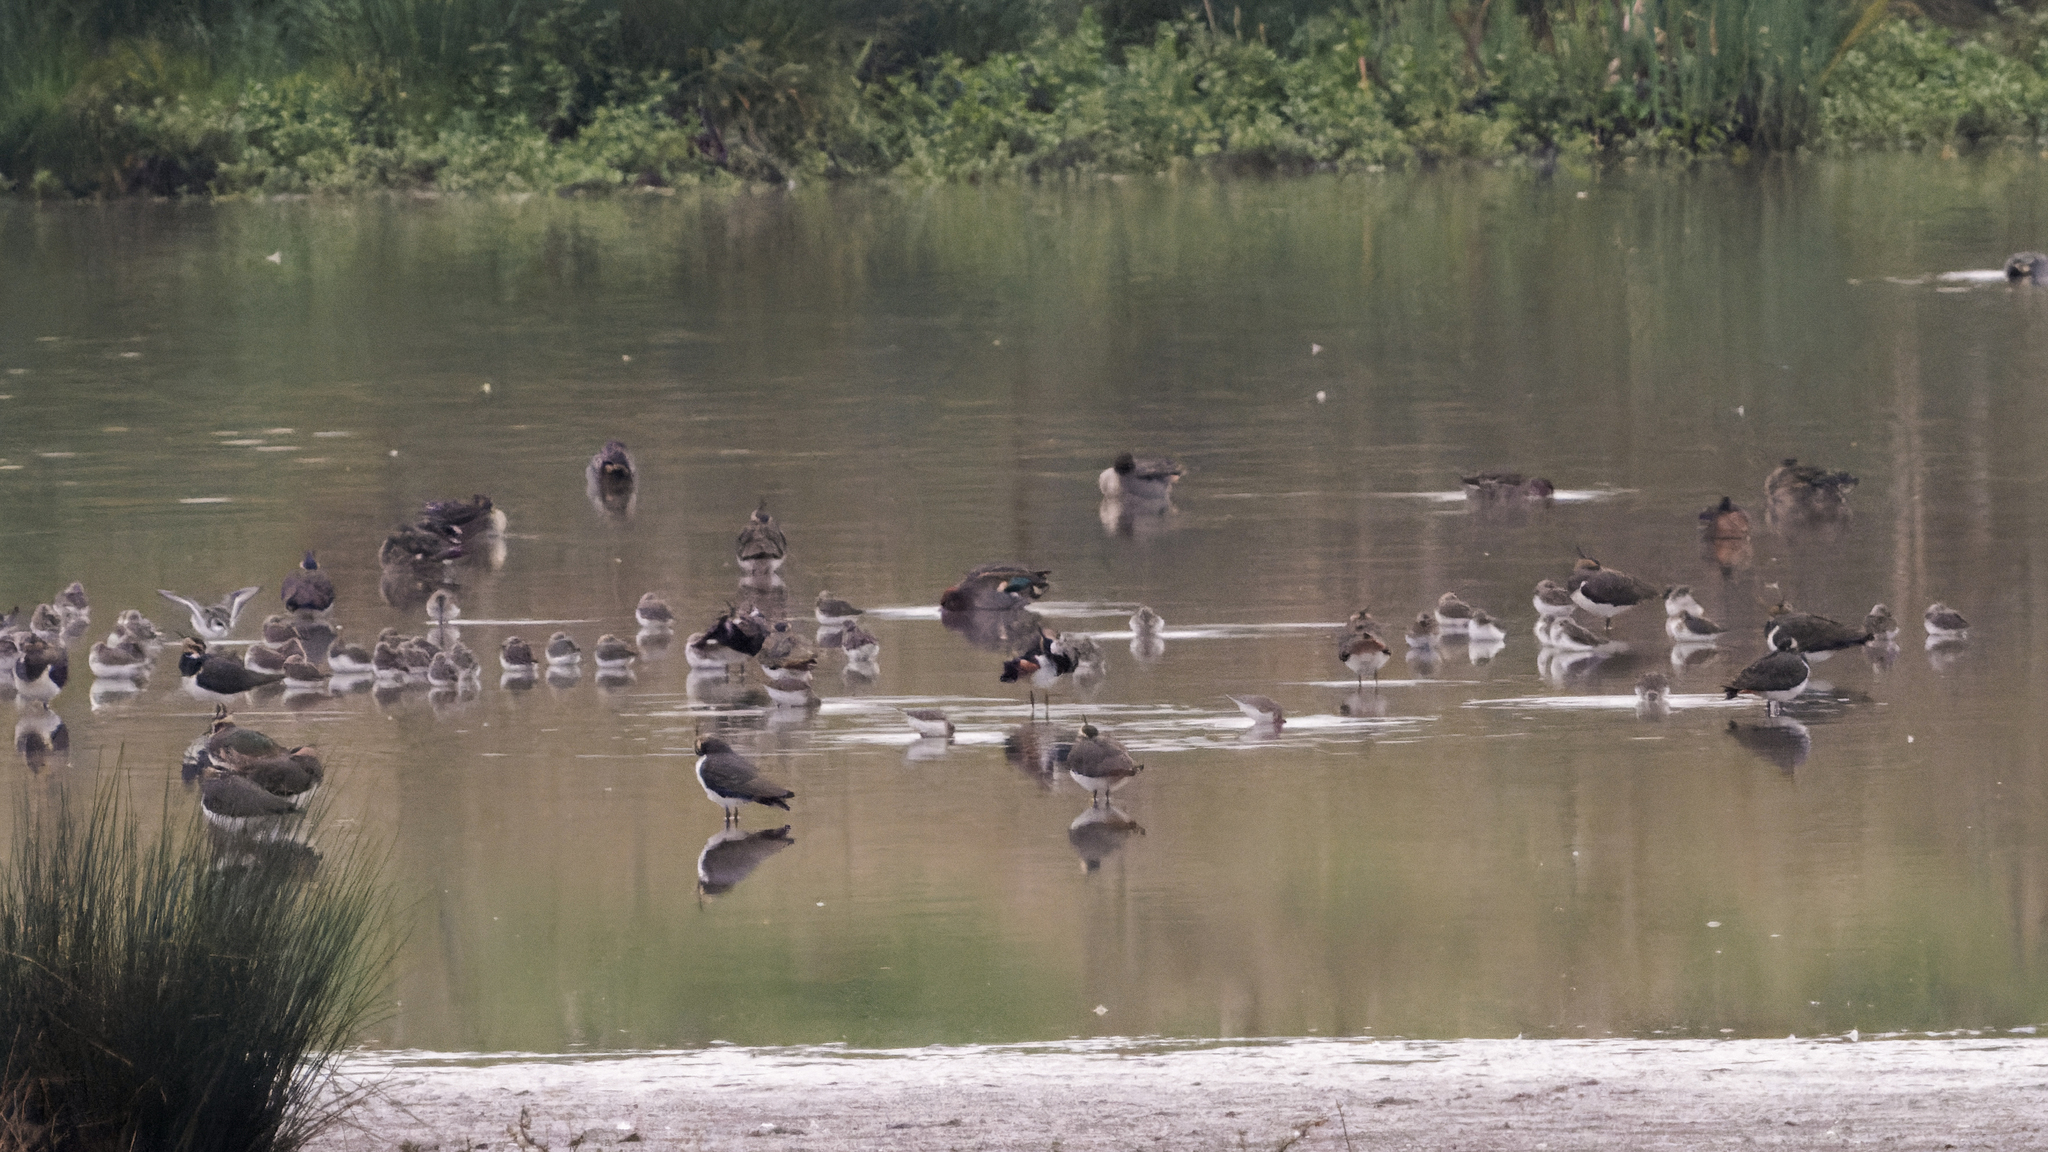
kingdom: Animalia
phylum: Chordata
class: Aves
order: Charadriiformes
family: Scolopacidae
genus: Calidris
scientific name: Calidris alpina
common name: Dunlin
